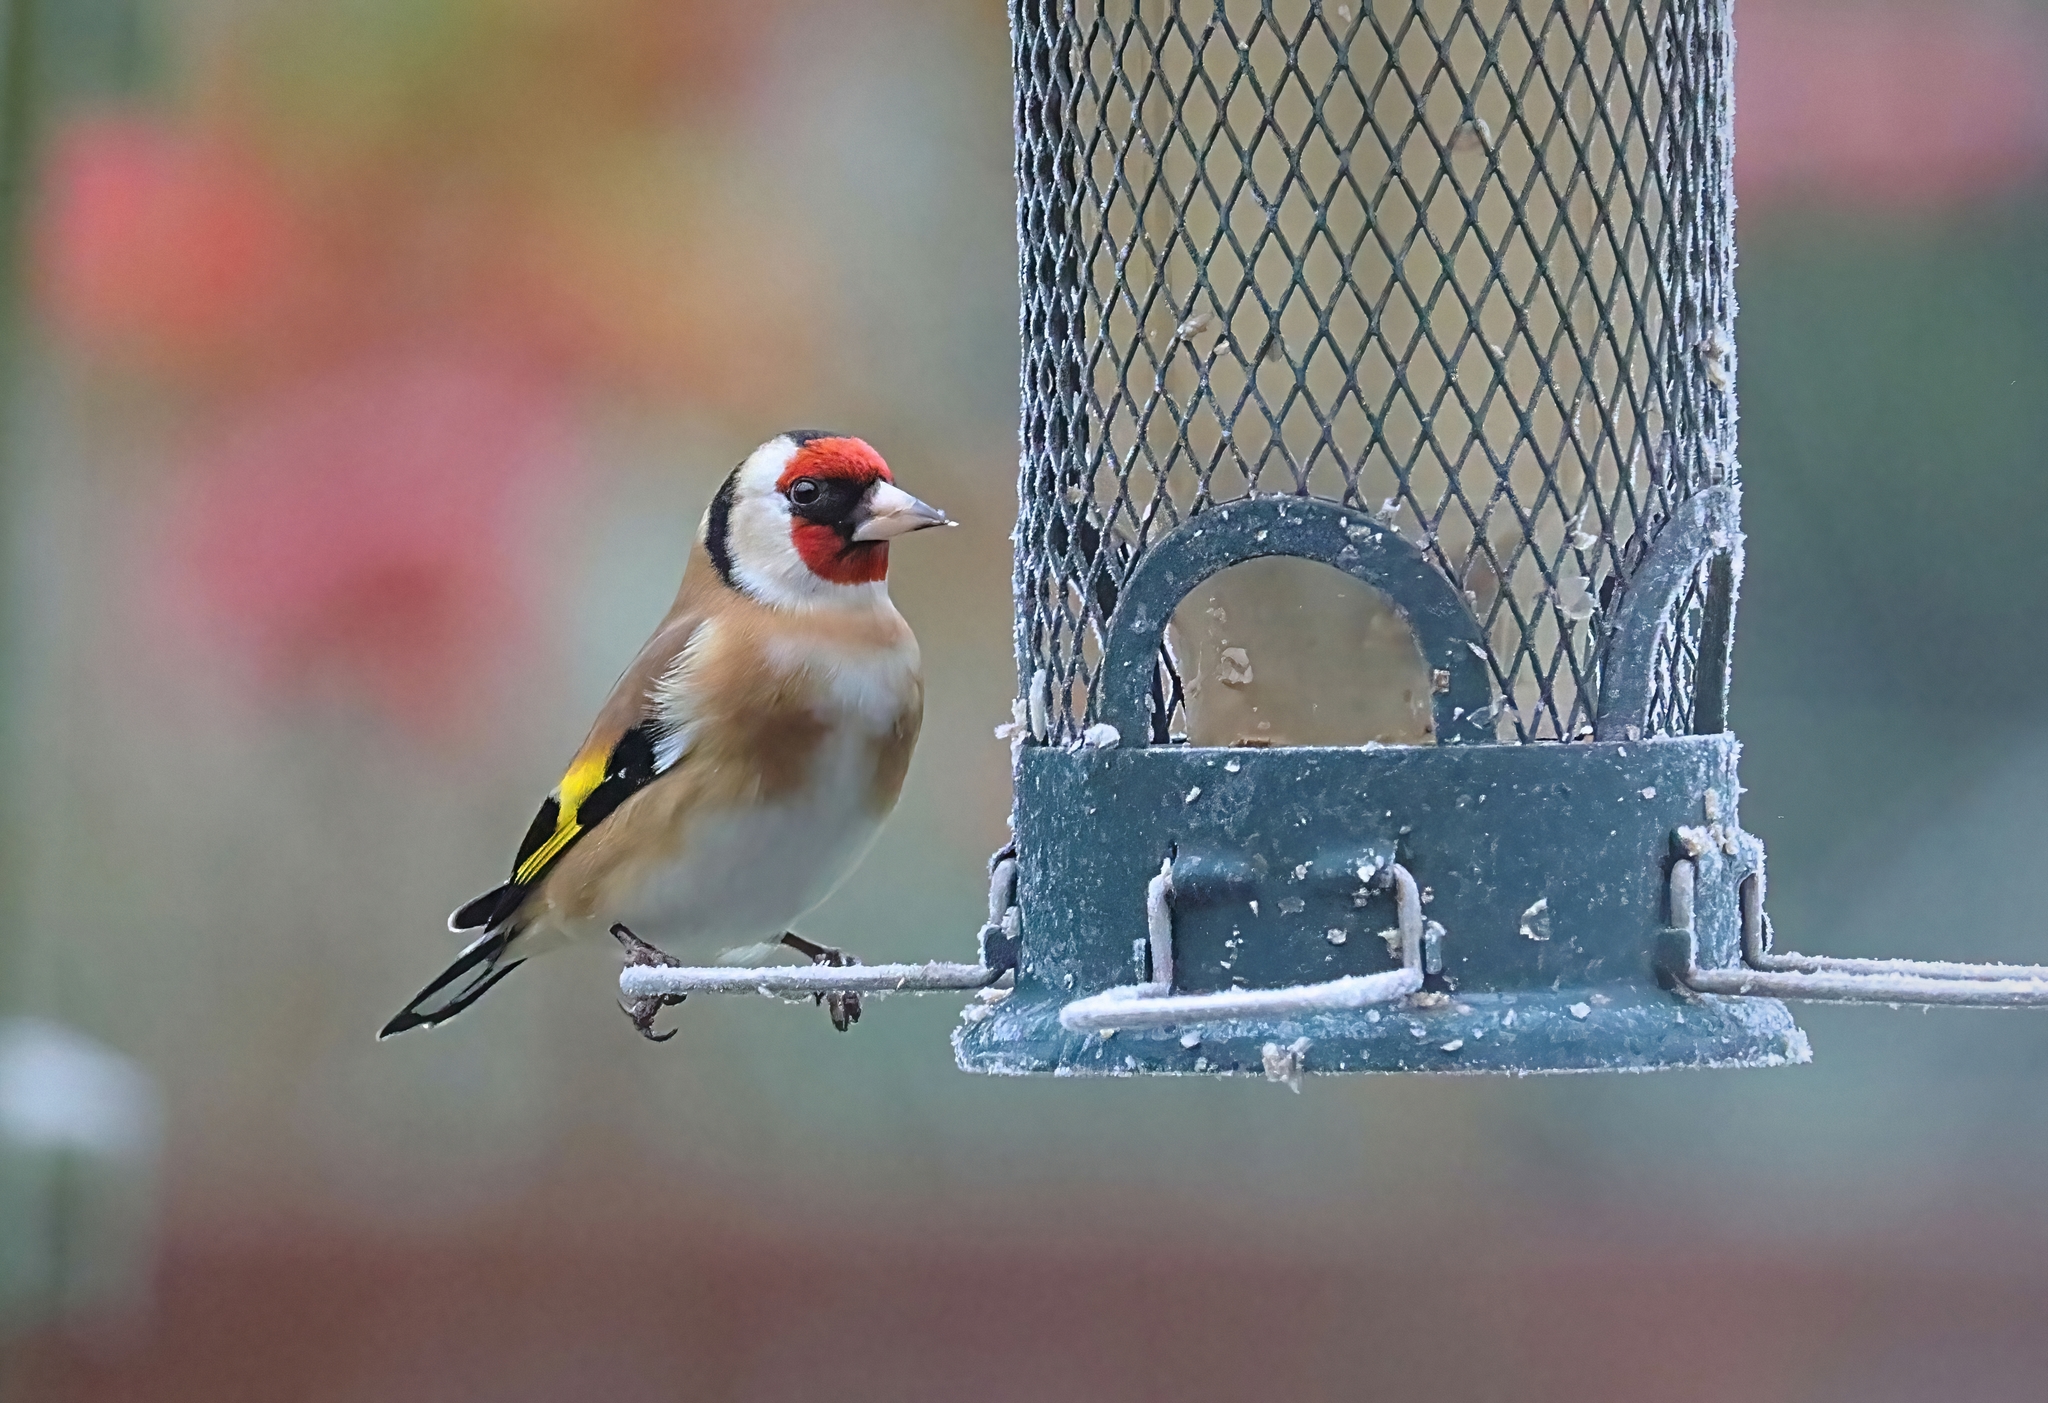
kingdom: Animalia
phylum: Chordata
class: Aves
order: Passeriformes
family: Fringillidae
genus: Carduelis
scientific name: Carduelis carduelis
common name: European goldfinch
